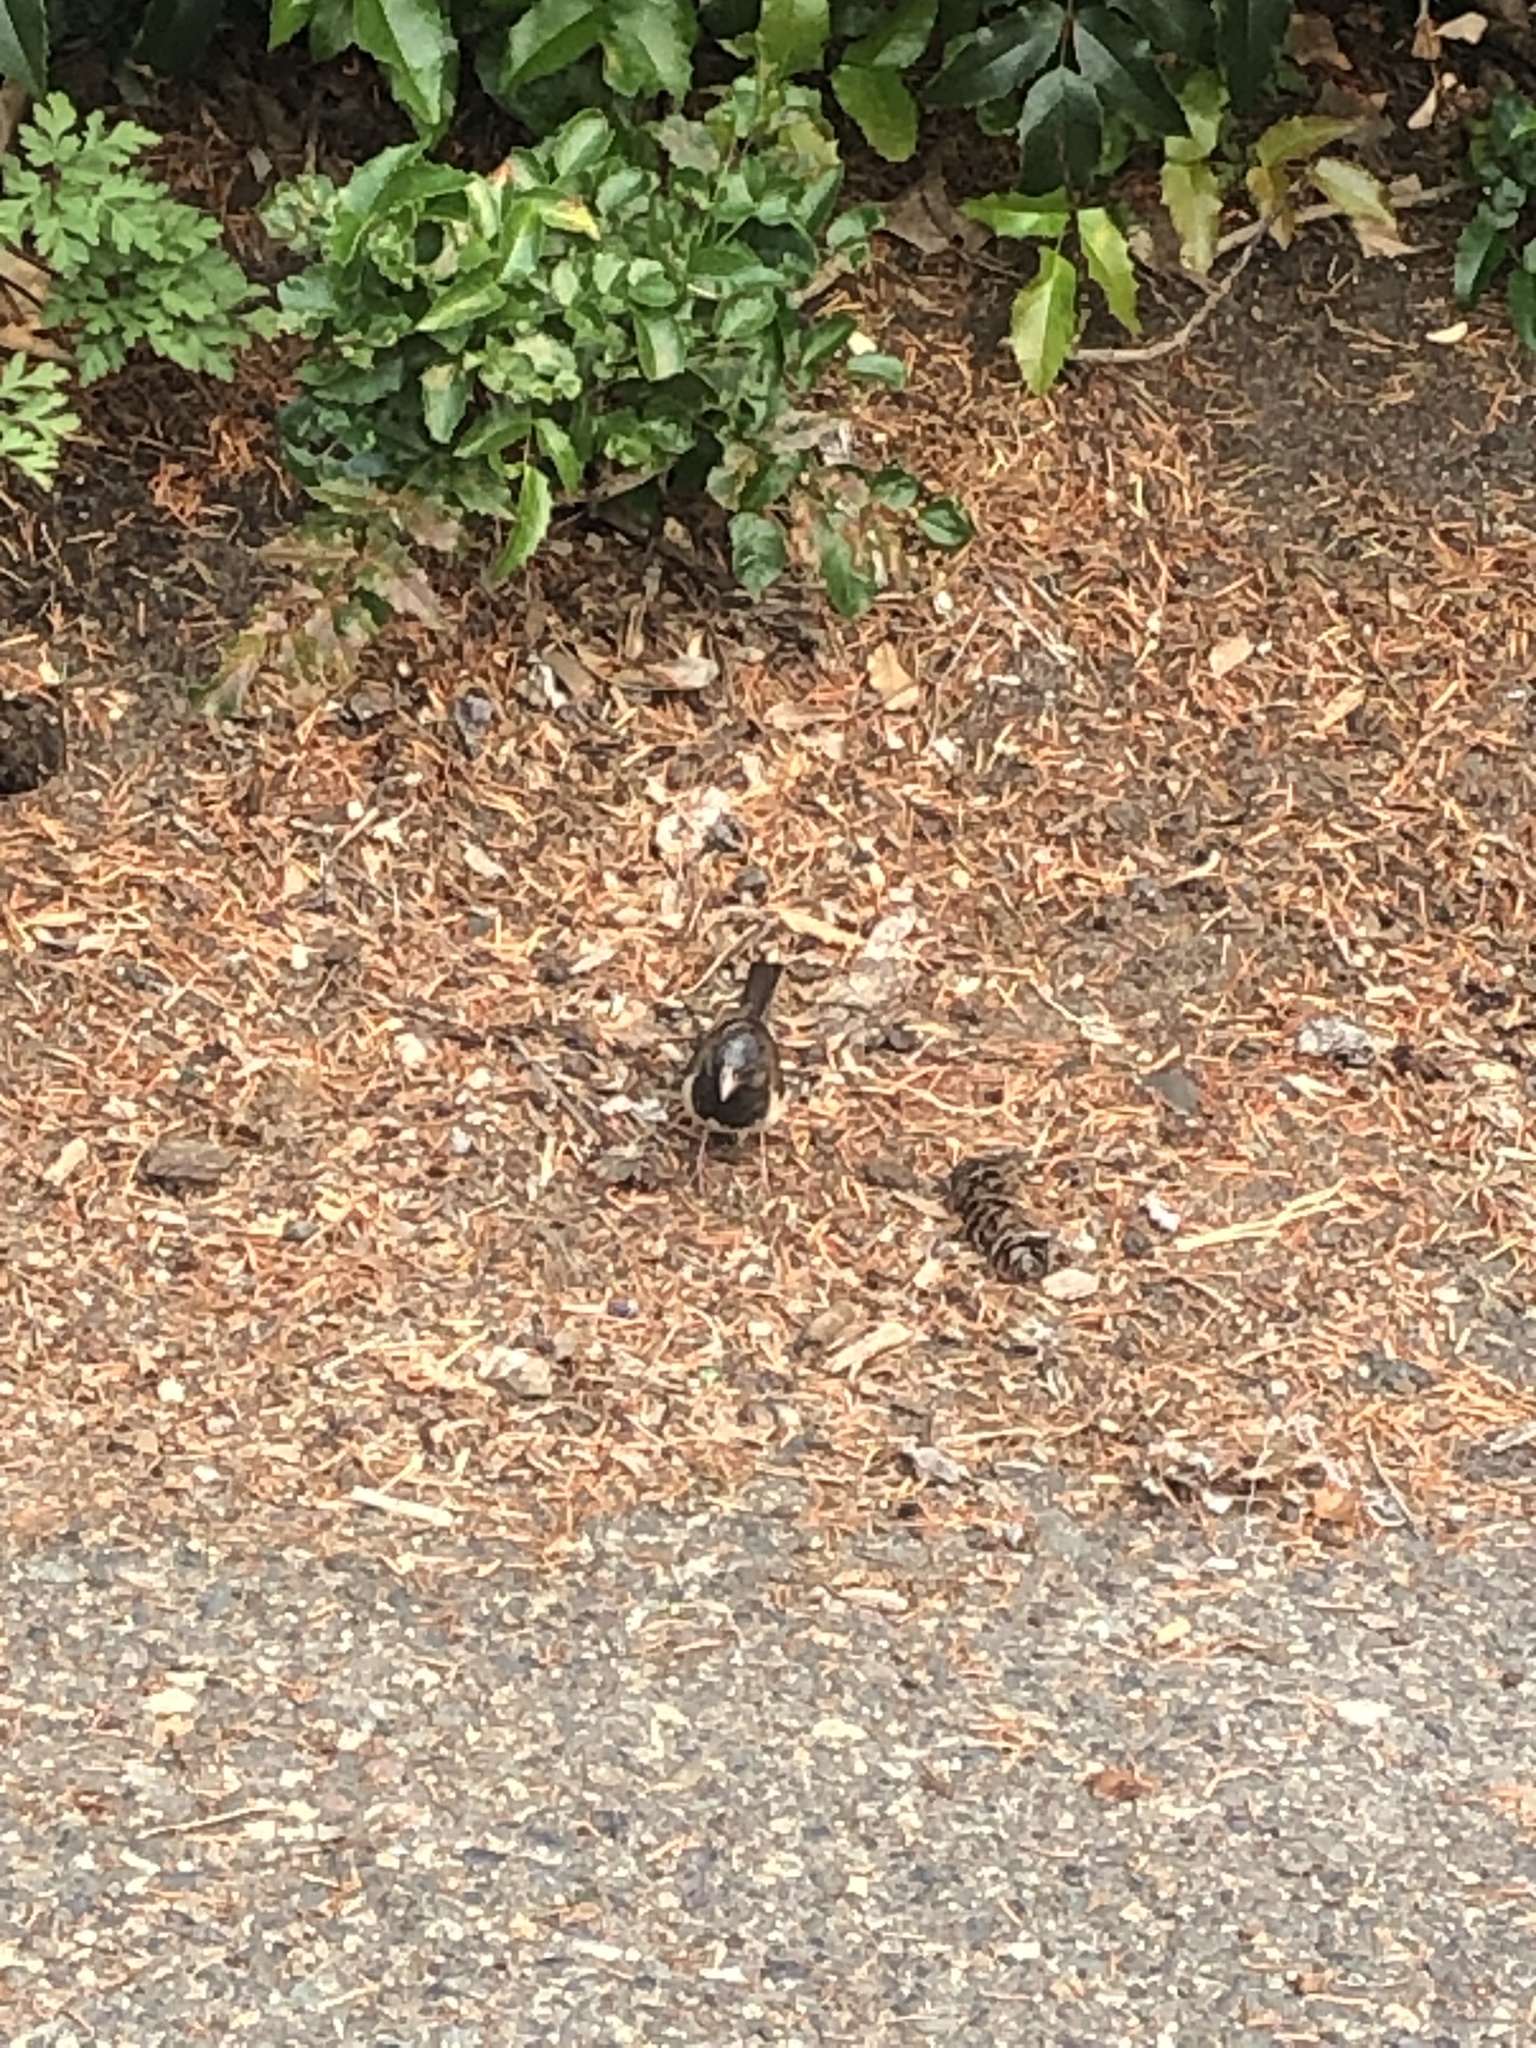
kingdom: Animalia
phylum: Chordata
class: Aves
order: Passeriformes
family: Passerellidae
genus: Junco
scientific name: Junco hyemalis
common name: Dark-eyed junco
